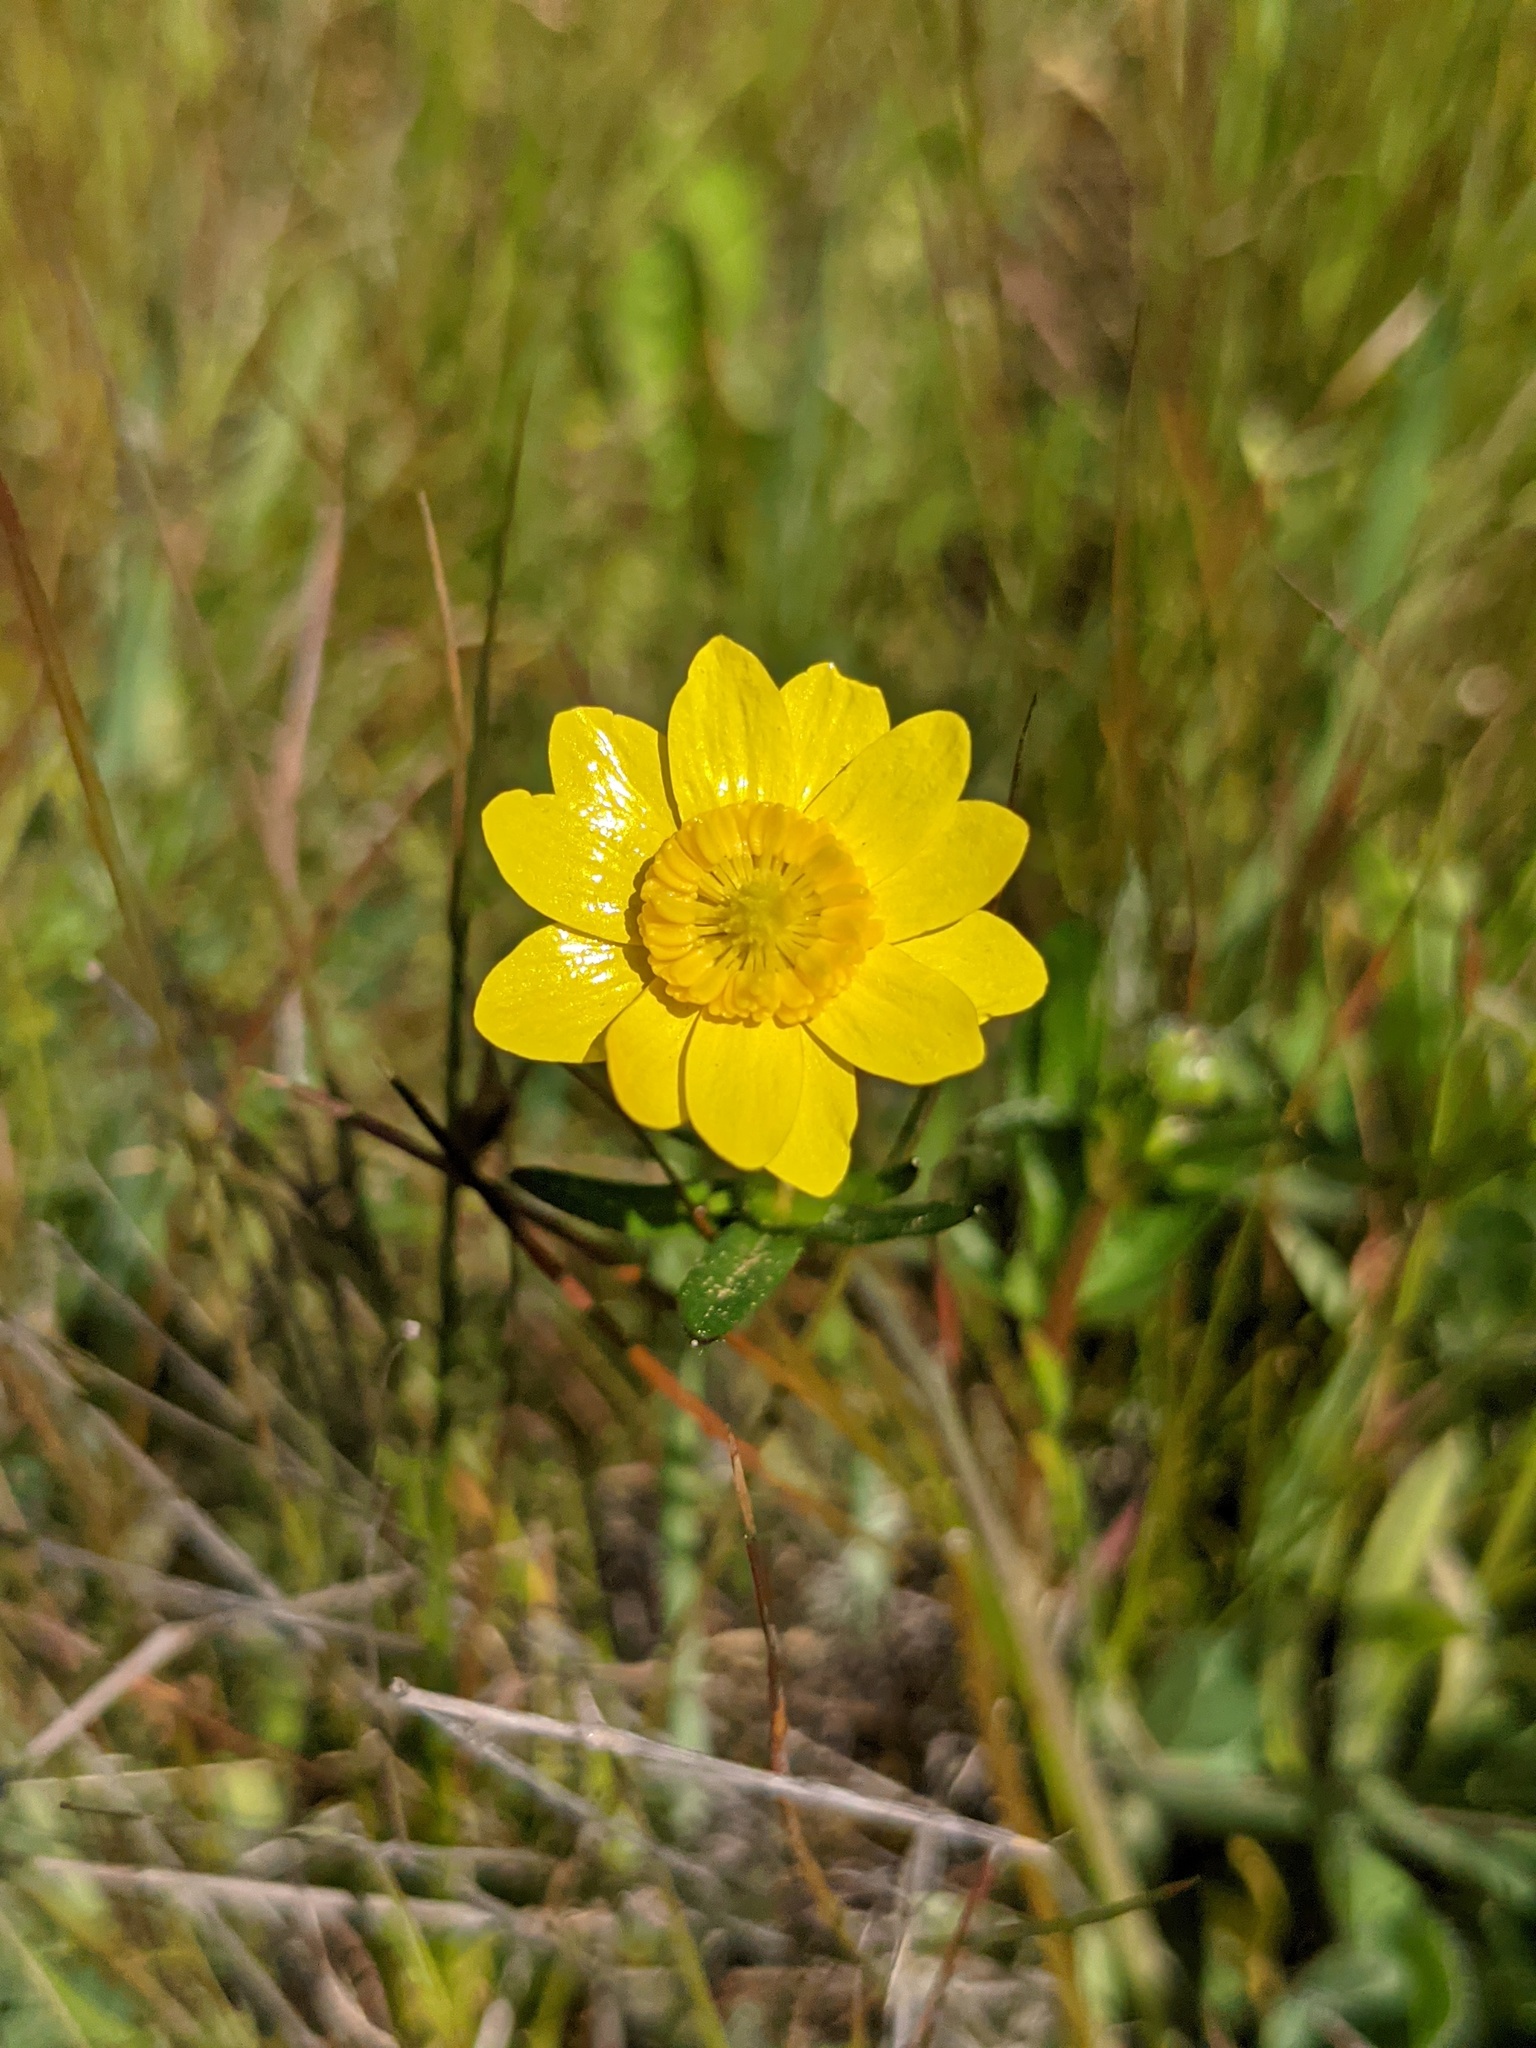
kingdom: Plantae
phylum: Tracheophyta
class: Magnoliopsida
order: Ranunculales
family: Ranunculaceae
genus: Ranunculus
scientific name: Ranunculus californicus
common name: California buttercup
